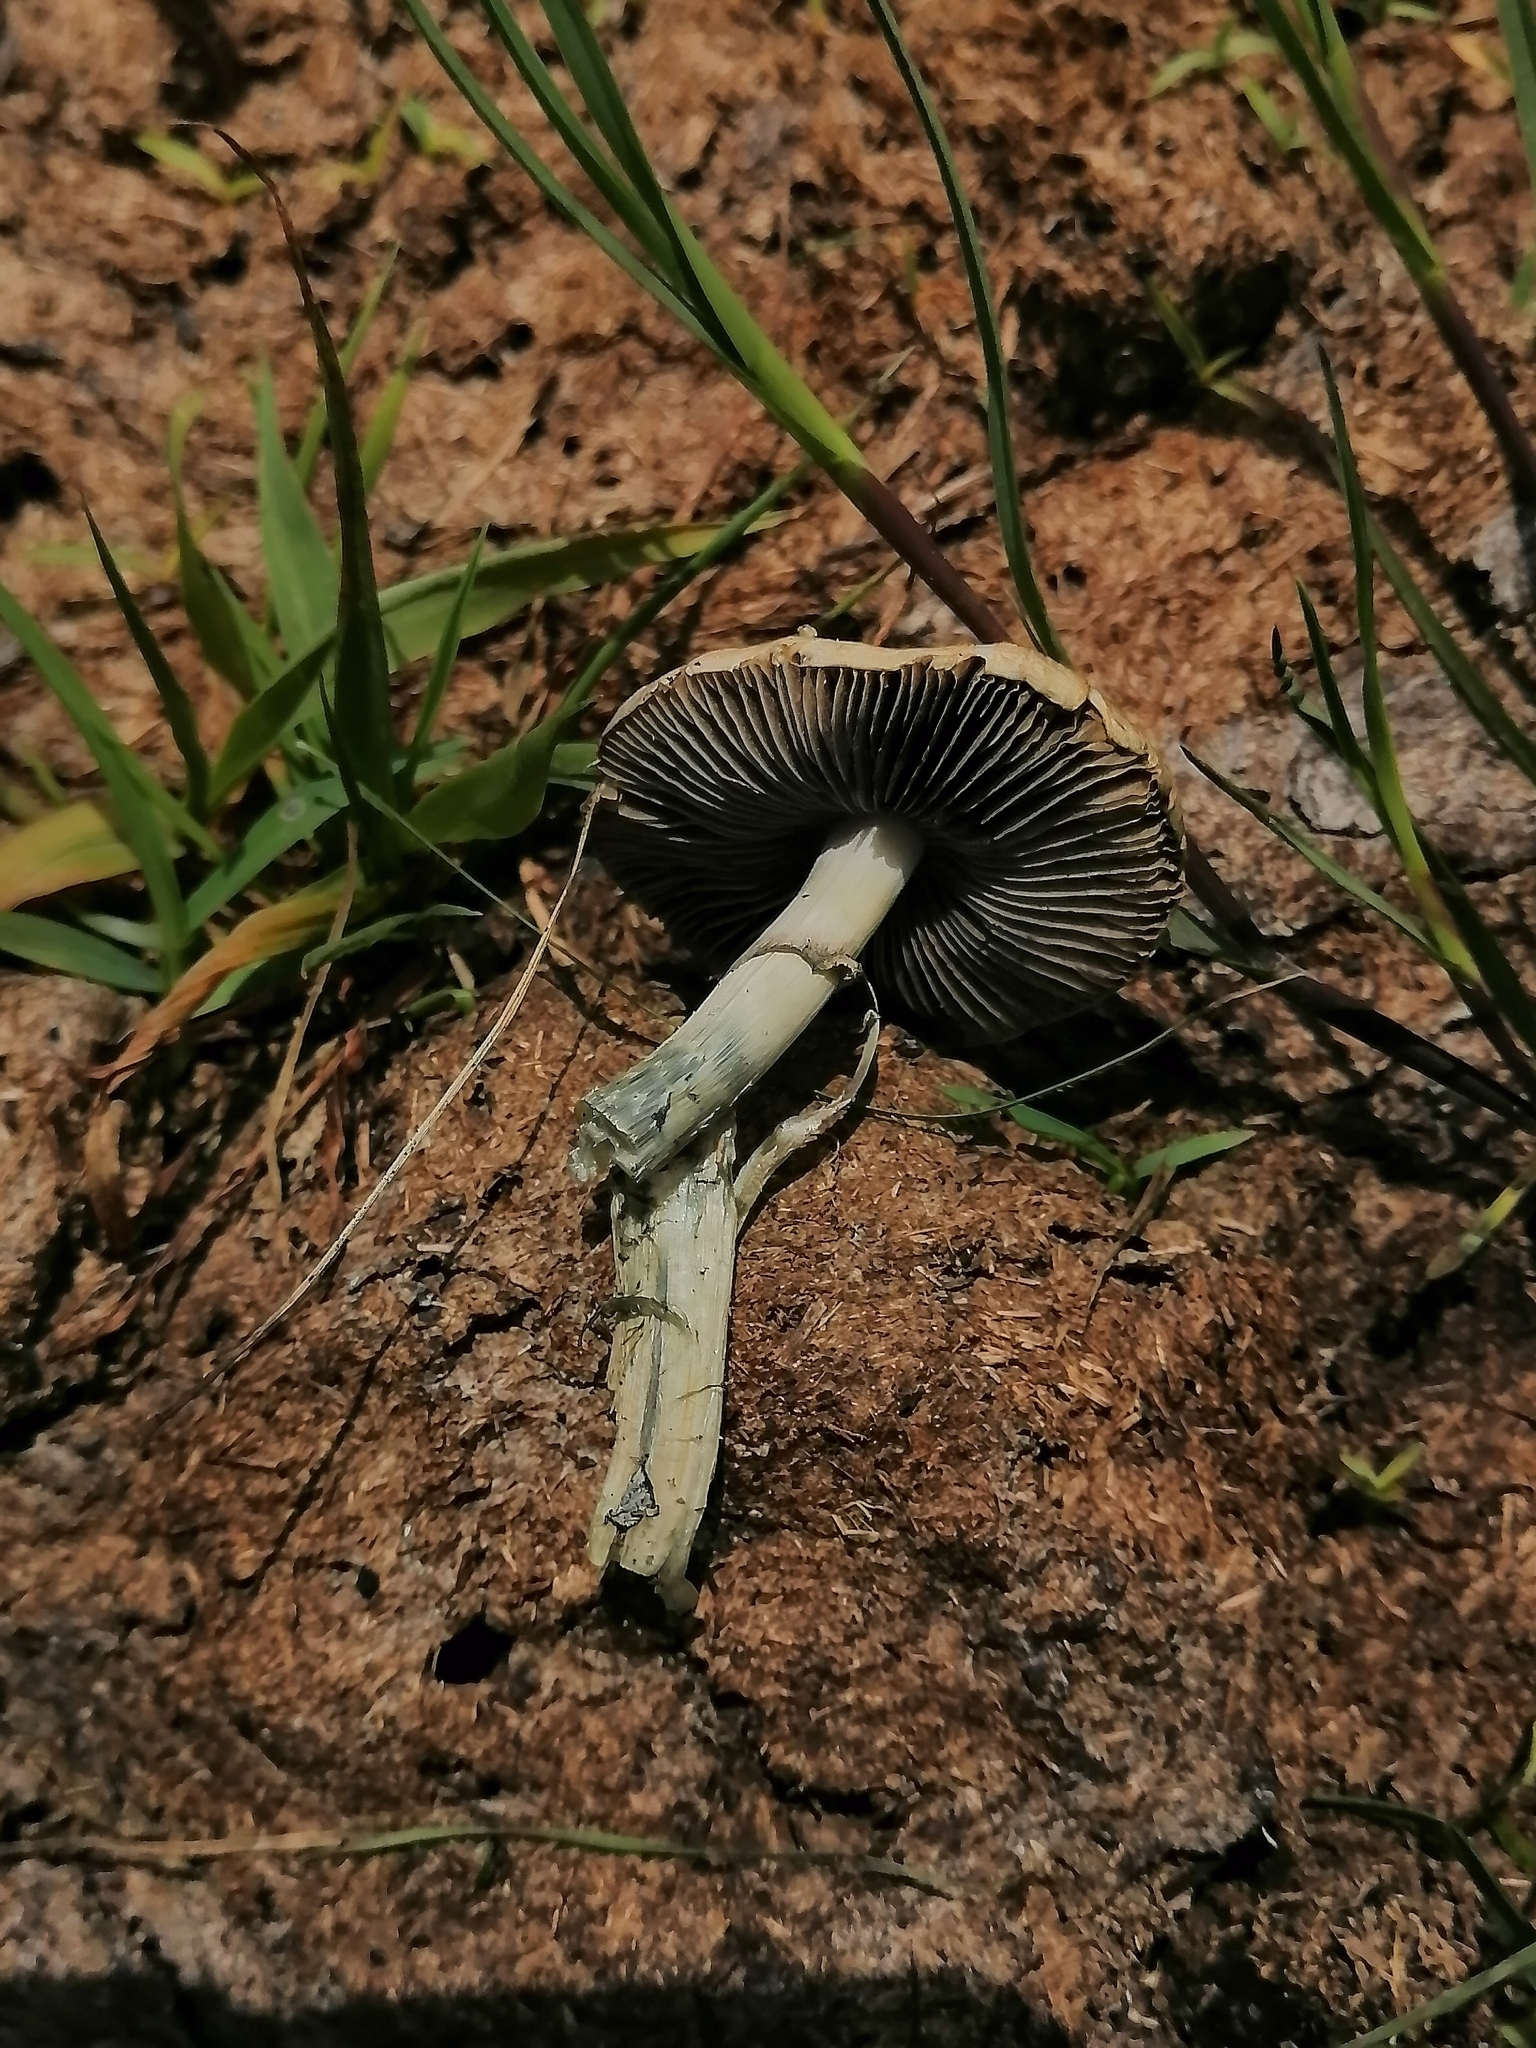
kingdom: Fungi
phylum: Basidiomycota
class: Agaricomycetes
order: Agaricales
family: Hymenogastraceae
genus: Psilocybe
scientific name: Psilocybe cubensis
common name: Golden brownie
